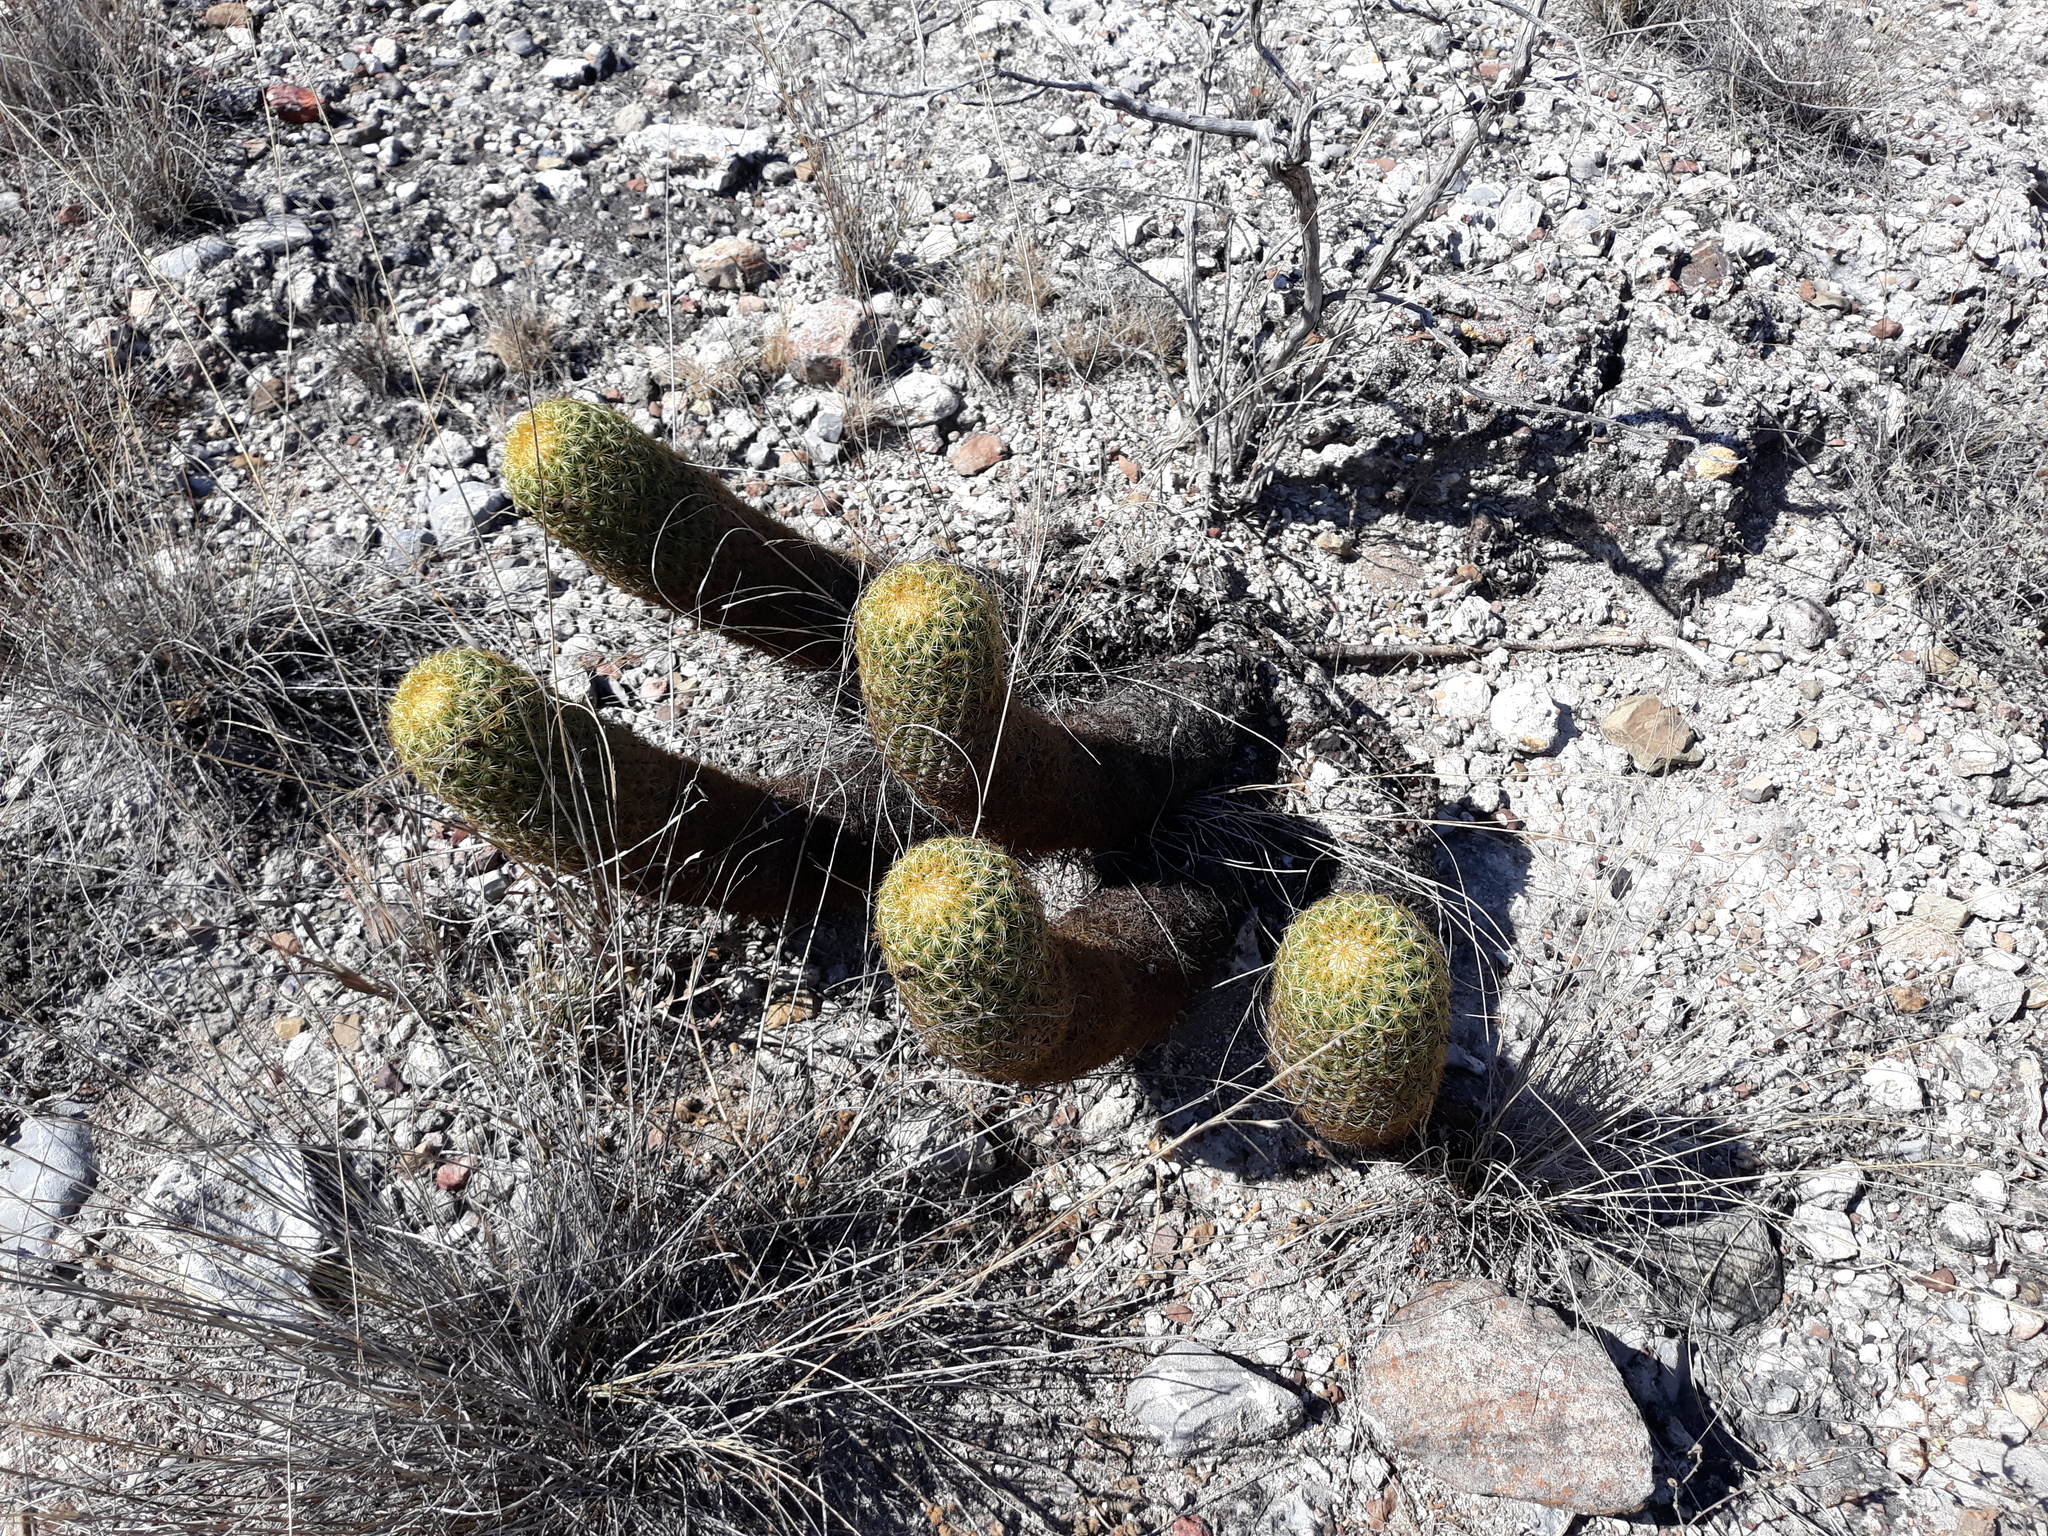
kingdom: Plantae
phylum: Tracheophyta
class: Magnoliopsida
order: Caryophyllales
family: Cactaceae
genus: Coryphantha
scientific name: Coryphantha erecta
